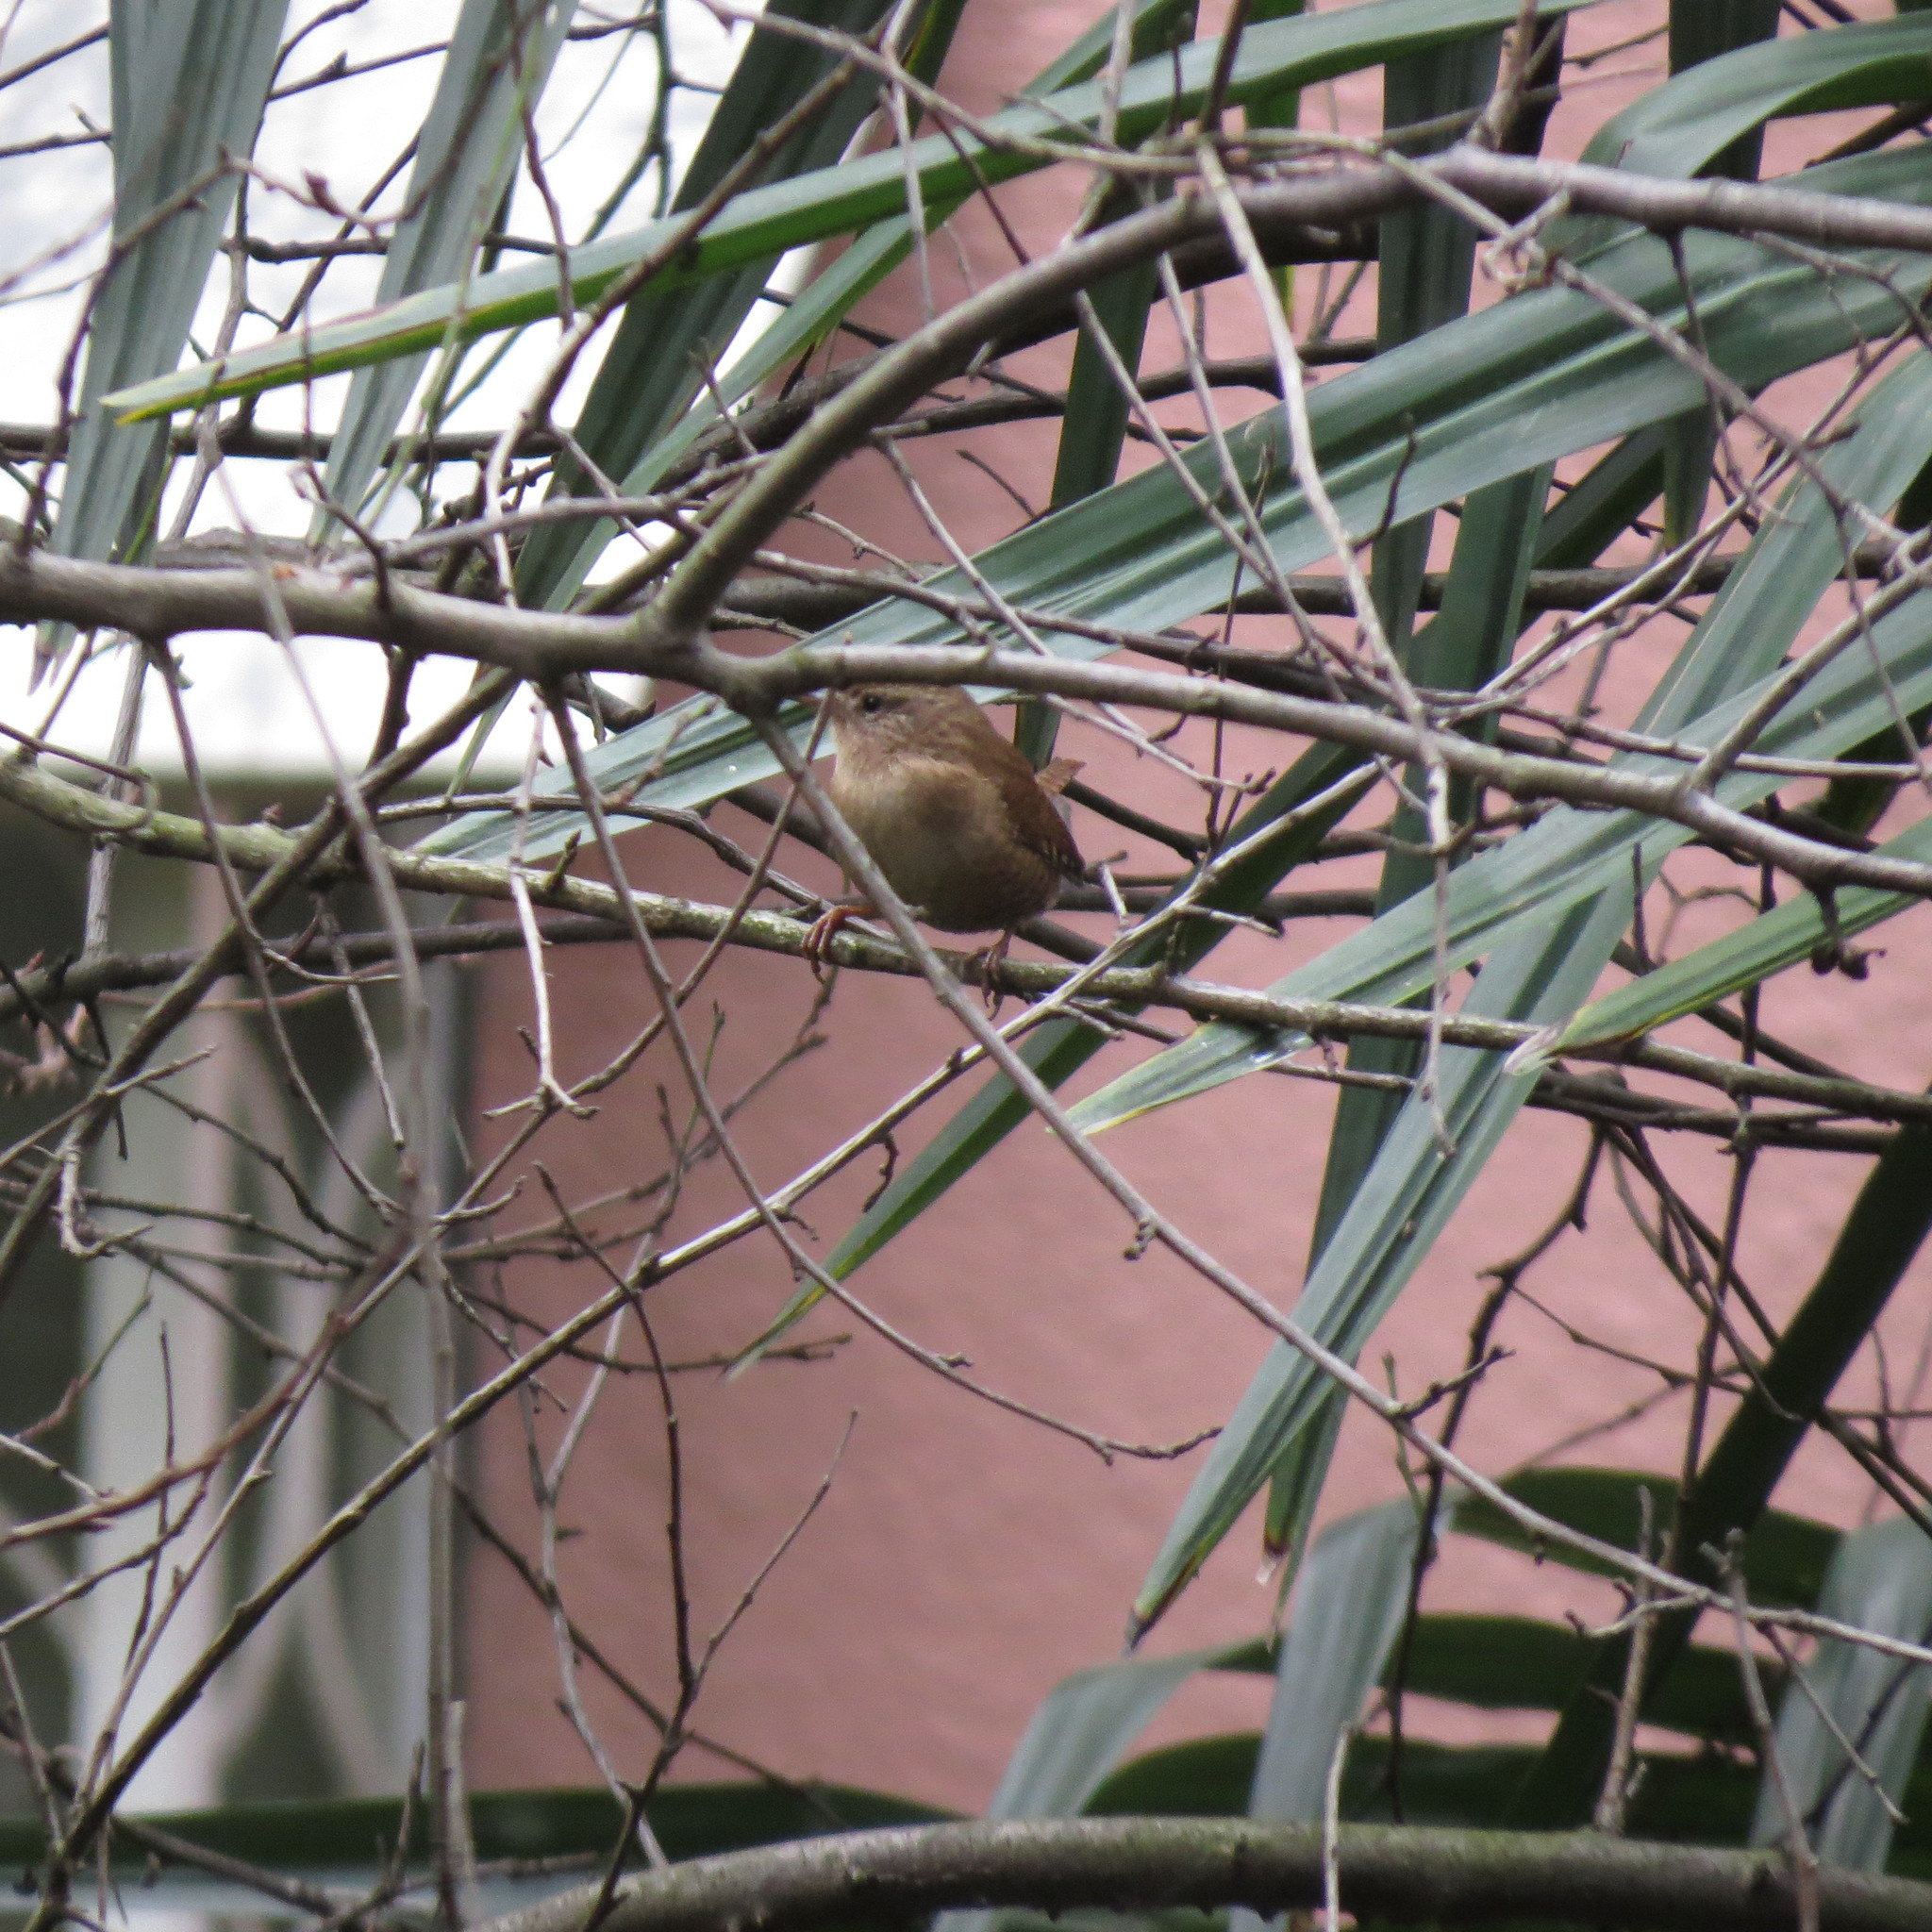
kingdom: Animalia
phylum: Chordata
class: Aves
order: Passeriformes
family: Troglodytidae
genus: Troglodytes
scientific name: Troglodytes troglodytes
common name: Eurasian wren
